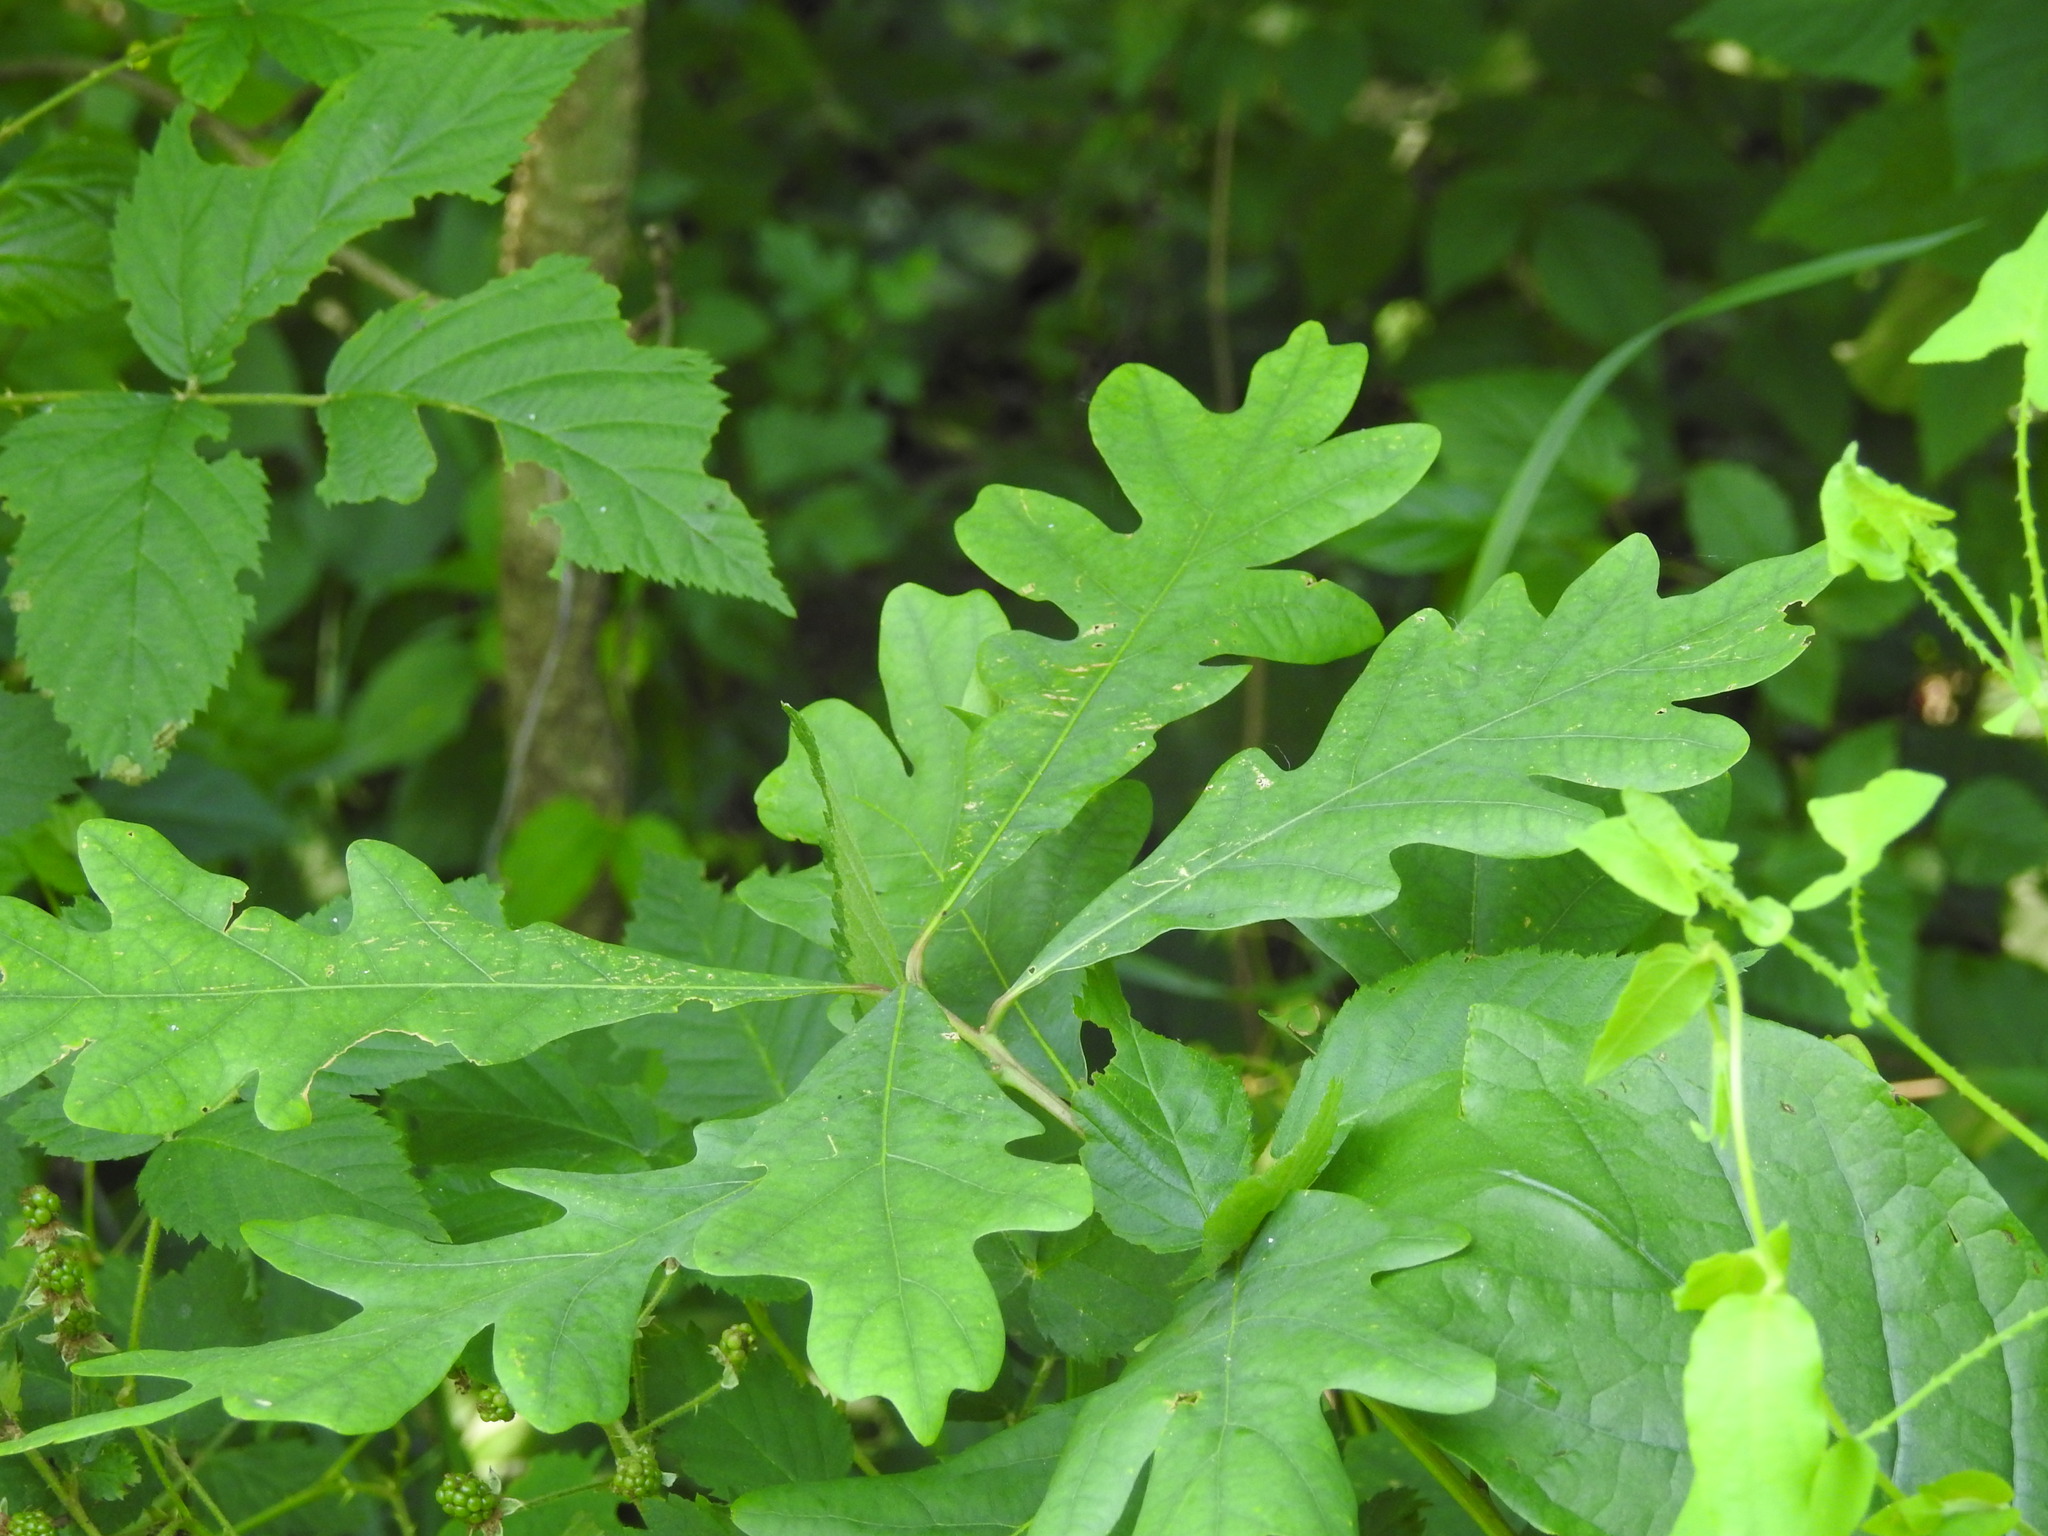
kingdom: Plantae
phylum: Tracheophyta
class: Magnoliopsida
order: Fagales
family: Fagaceae
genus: Quercus
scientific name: Quercus alba
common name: White oak
